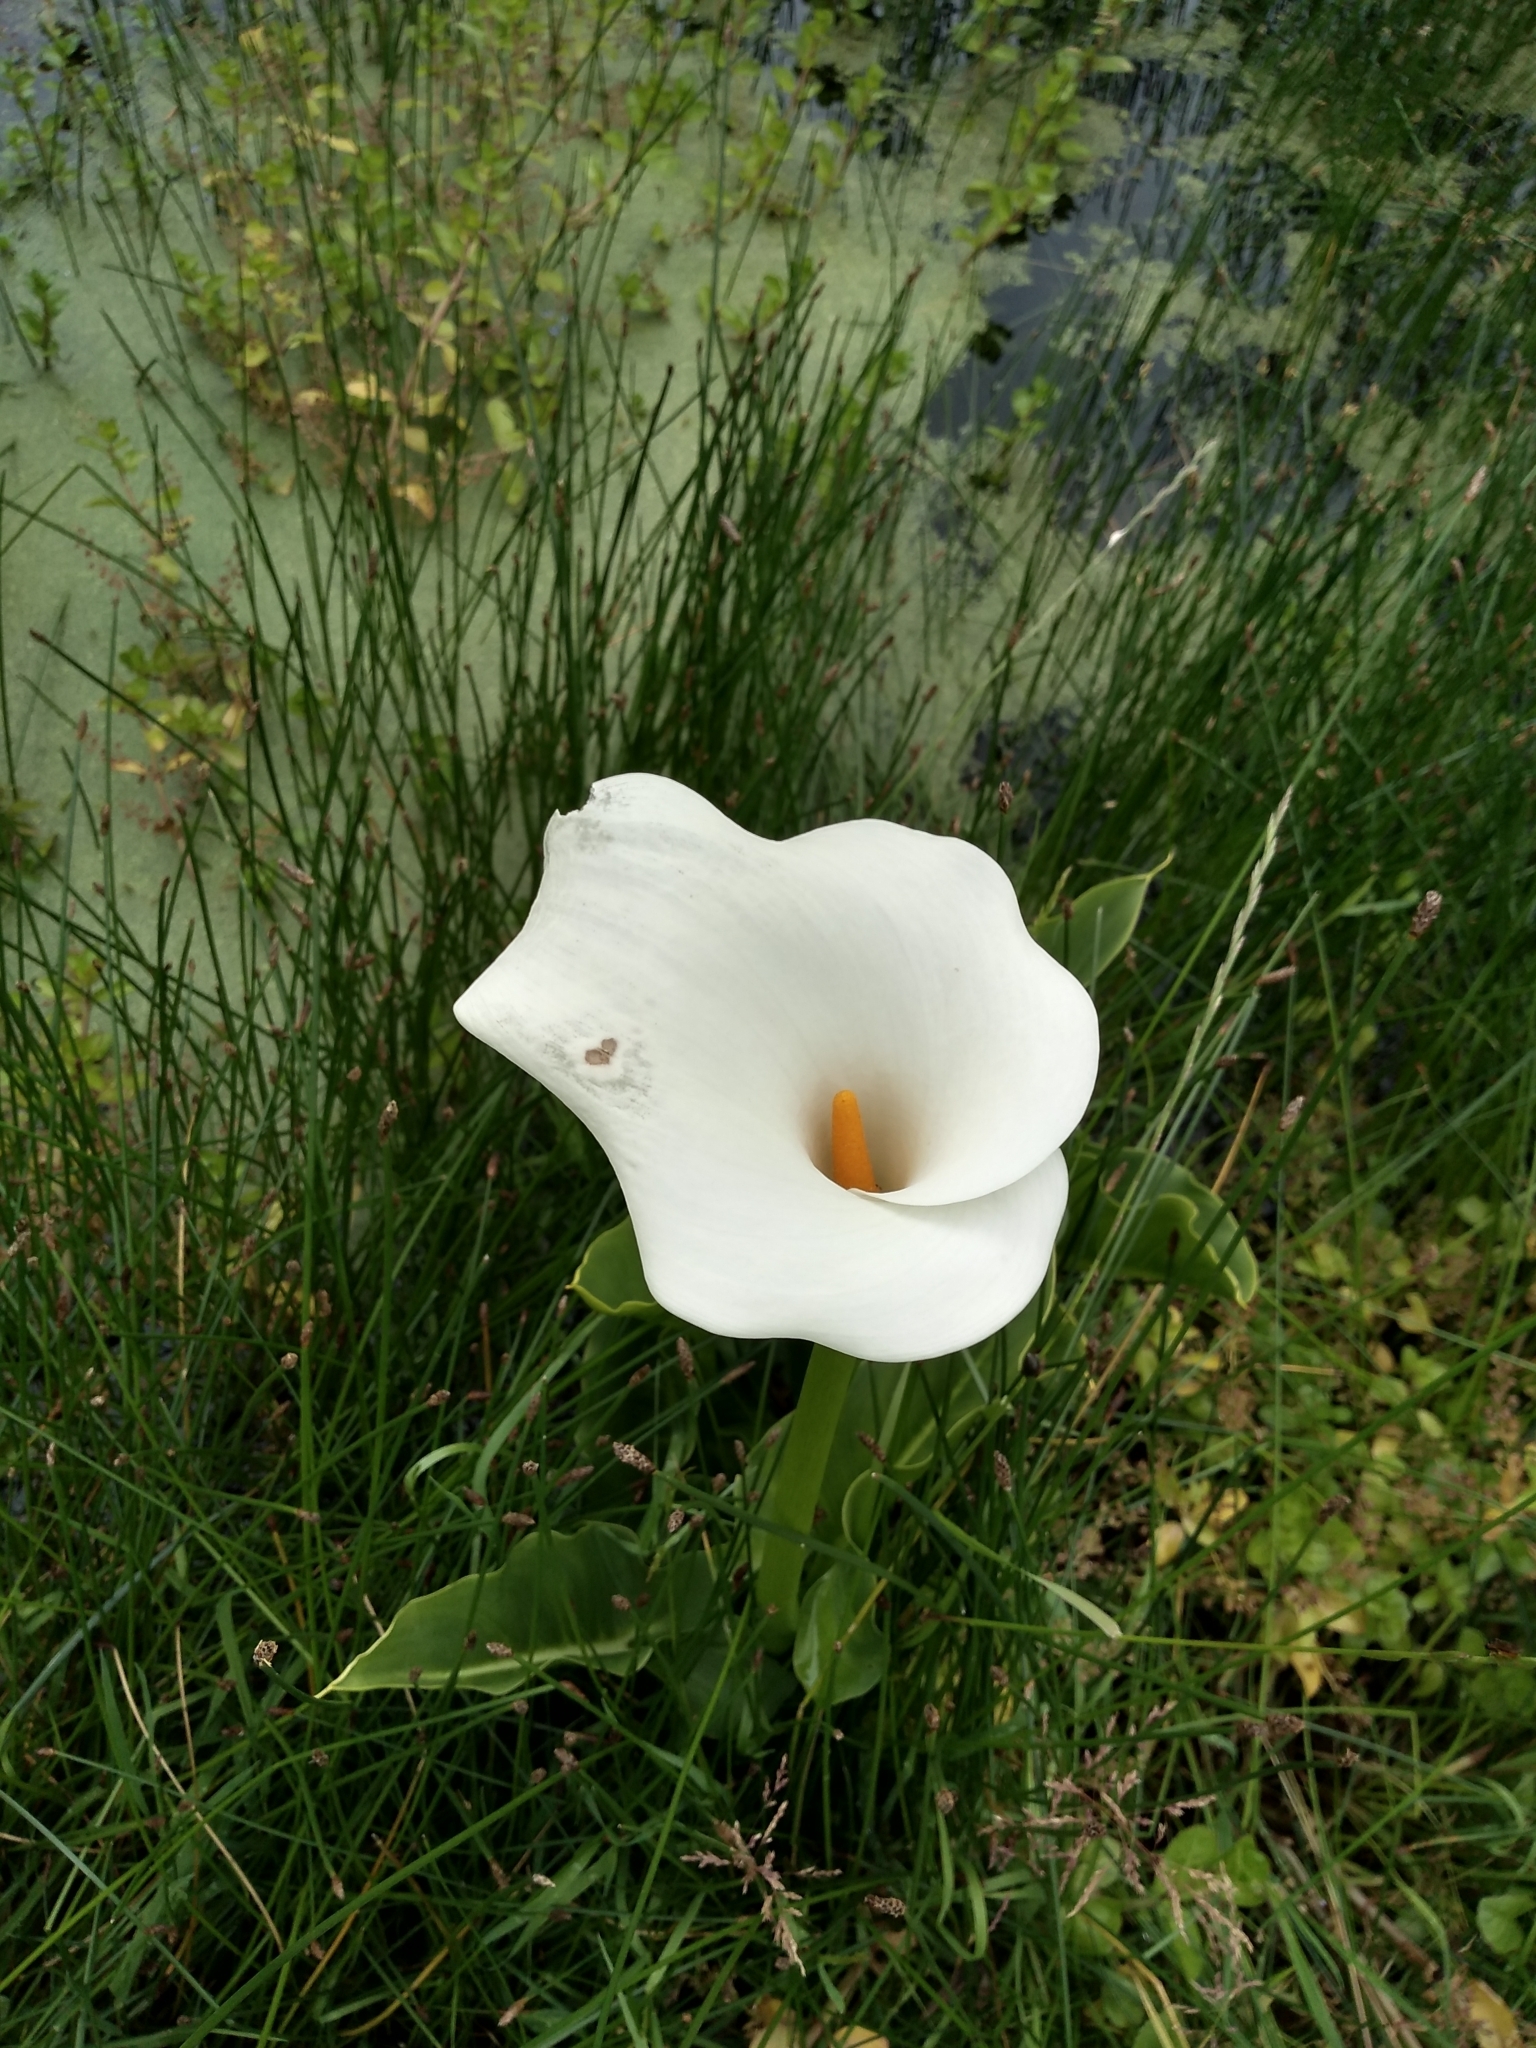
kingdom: Plantae
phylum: Tracheophyta
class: Liliopsida
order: Alismatales
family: Araceae
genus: Zantedeschia
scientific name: Zantedeschia aethiopica
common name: Altar-lily
